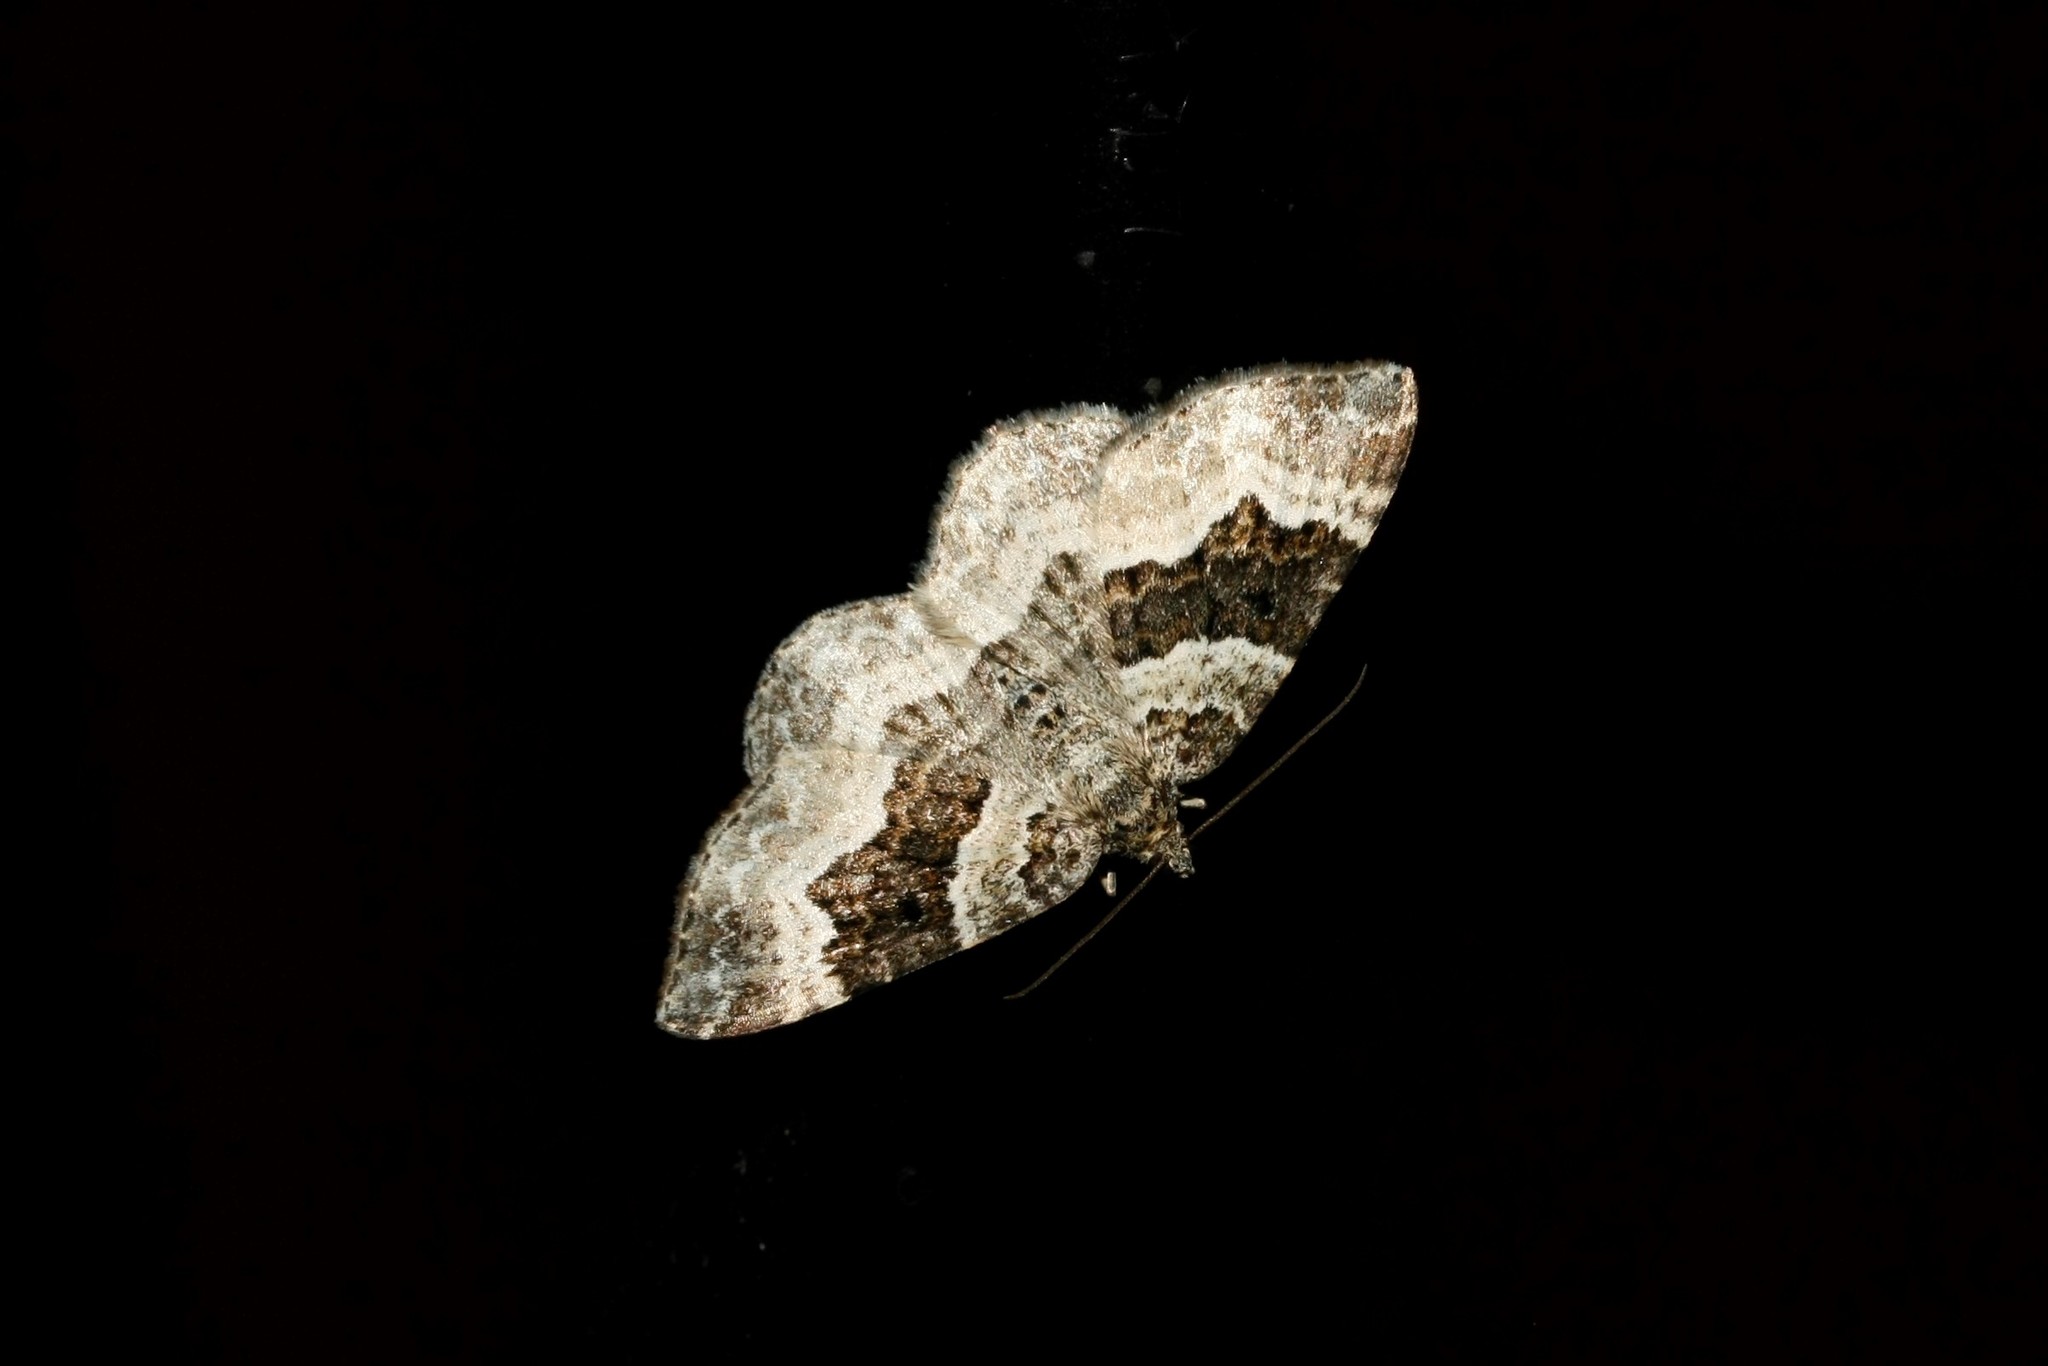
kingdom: Animalia
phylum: Arthropoda
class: Insecta
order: Lepidoptera
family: Geometridae
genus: Epirrhoe
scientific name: Epirrhoe alternata
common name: Common carpet
